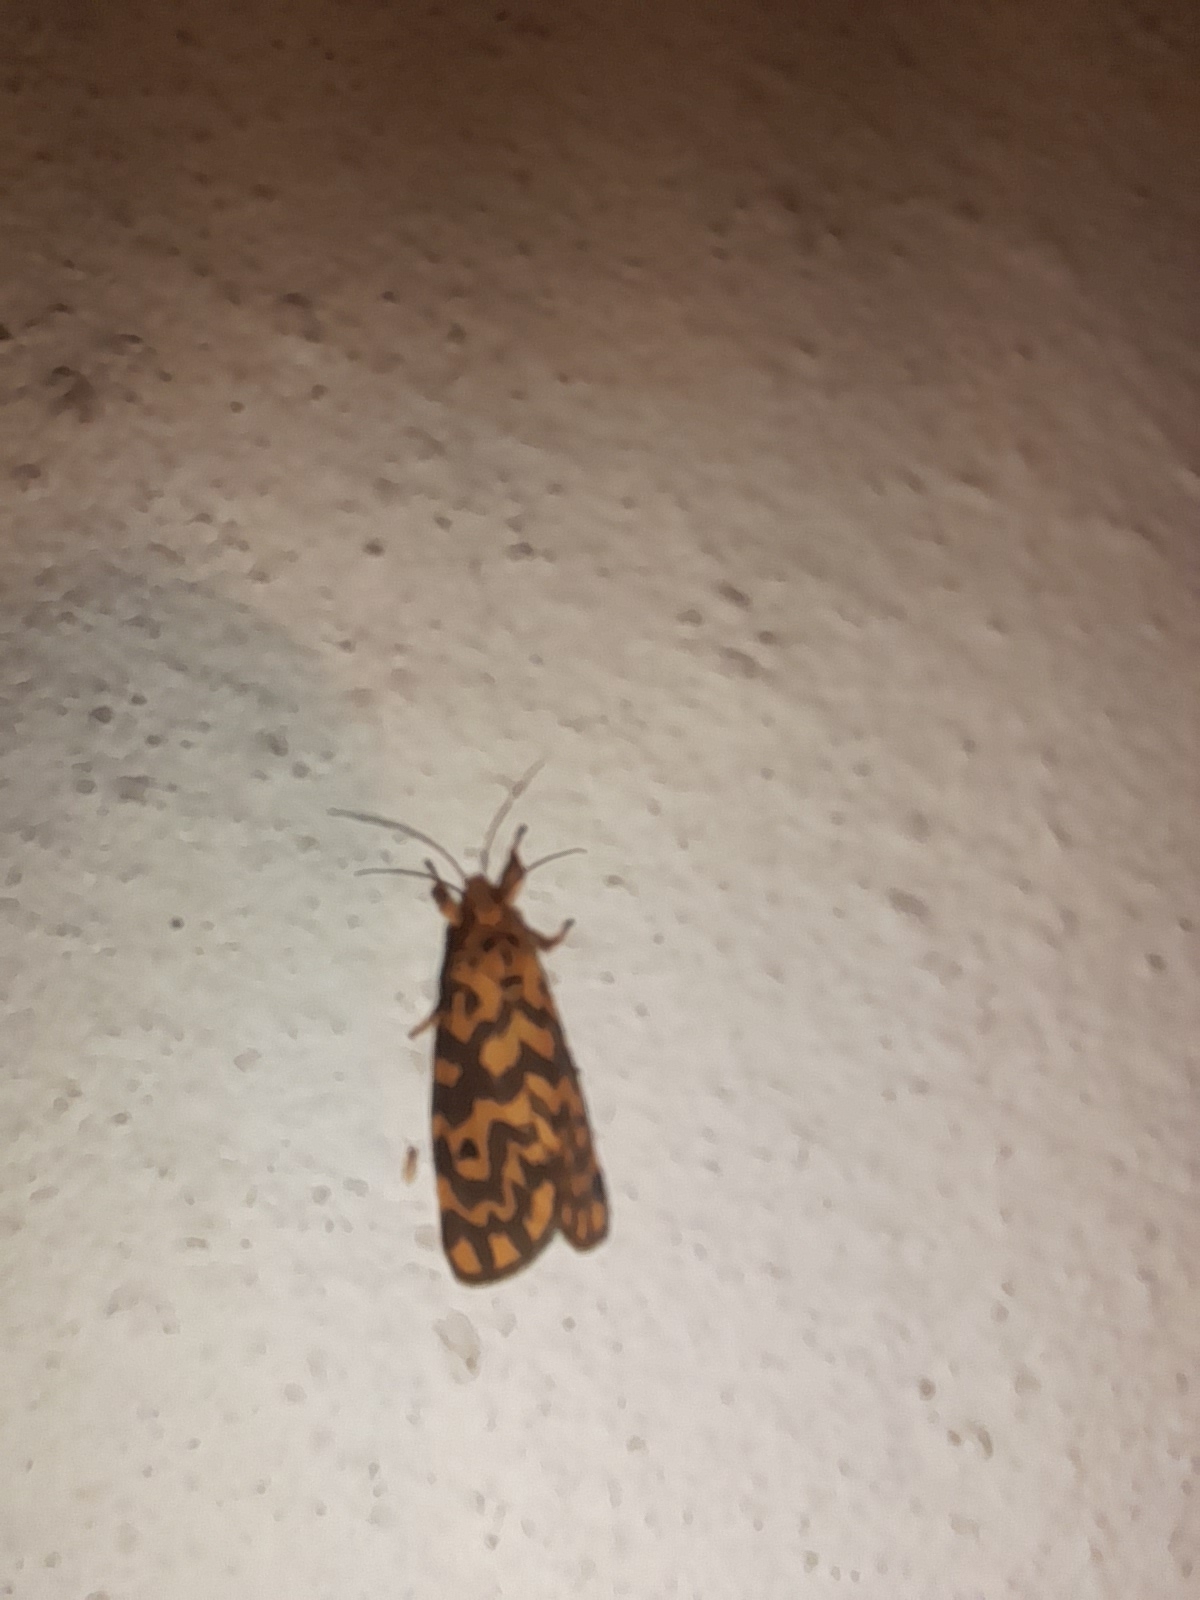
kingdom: Animalia
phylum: Arthropoda
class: Insecta
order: Lepidoptera
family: Erebidae
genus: Nepita
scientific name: Nepita conferta
